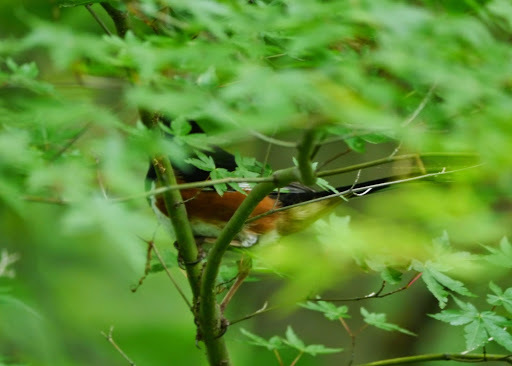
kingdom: Animalia
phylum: Chordata
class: Aves
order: Passeriformes
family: Passerellidae
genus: Pipilo
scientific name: Pipilo erythrophthalmus
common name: Eastern towhee
